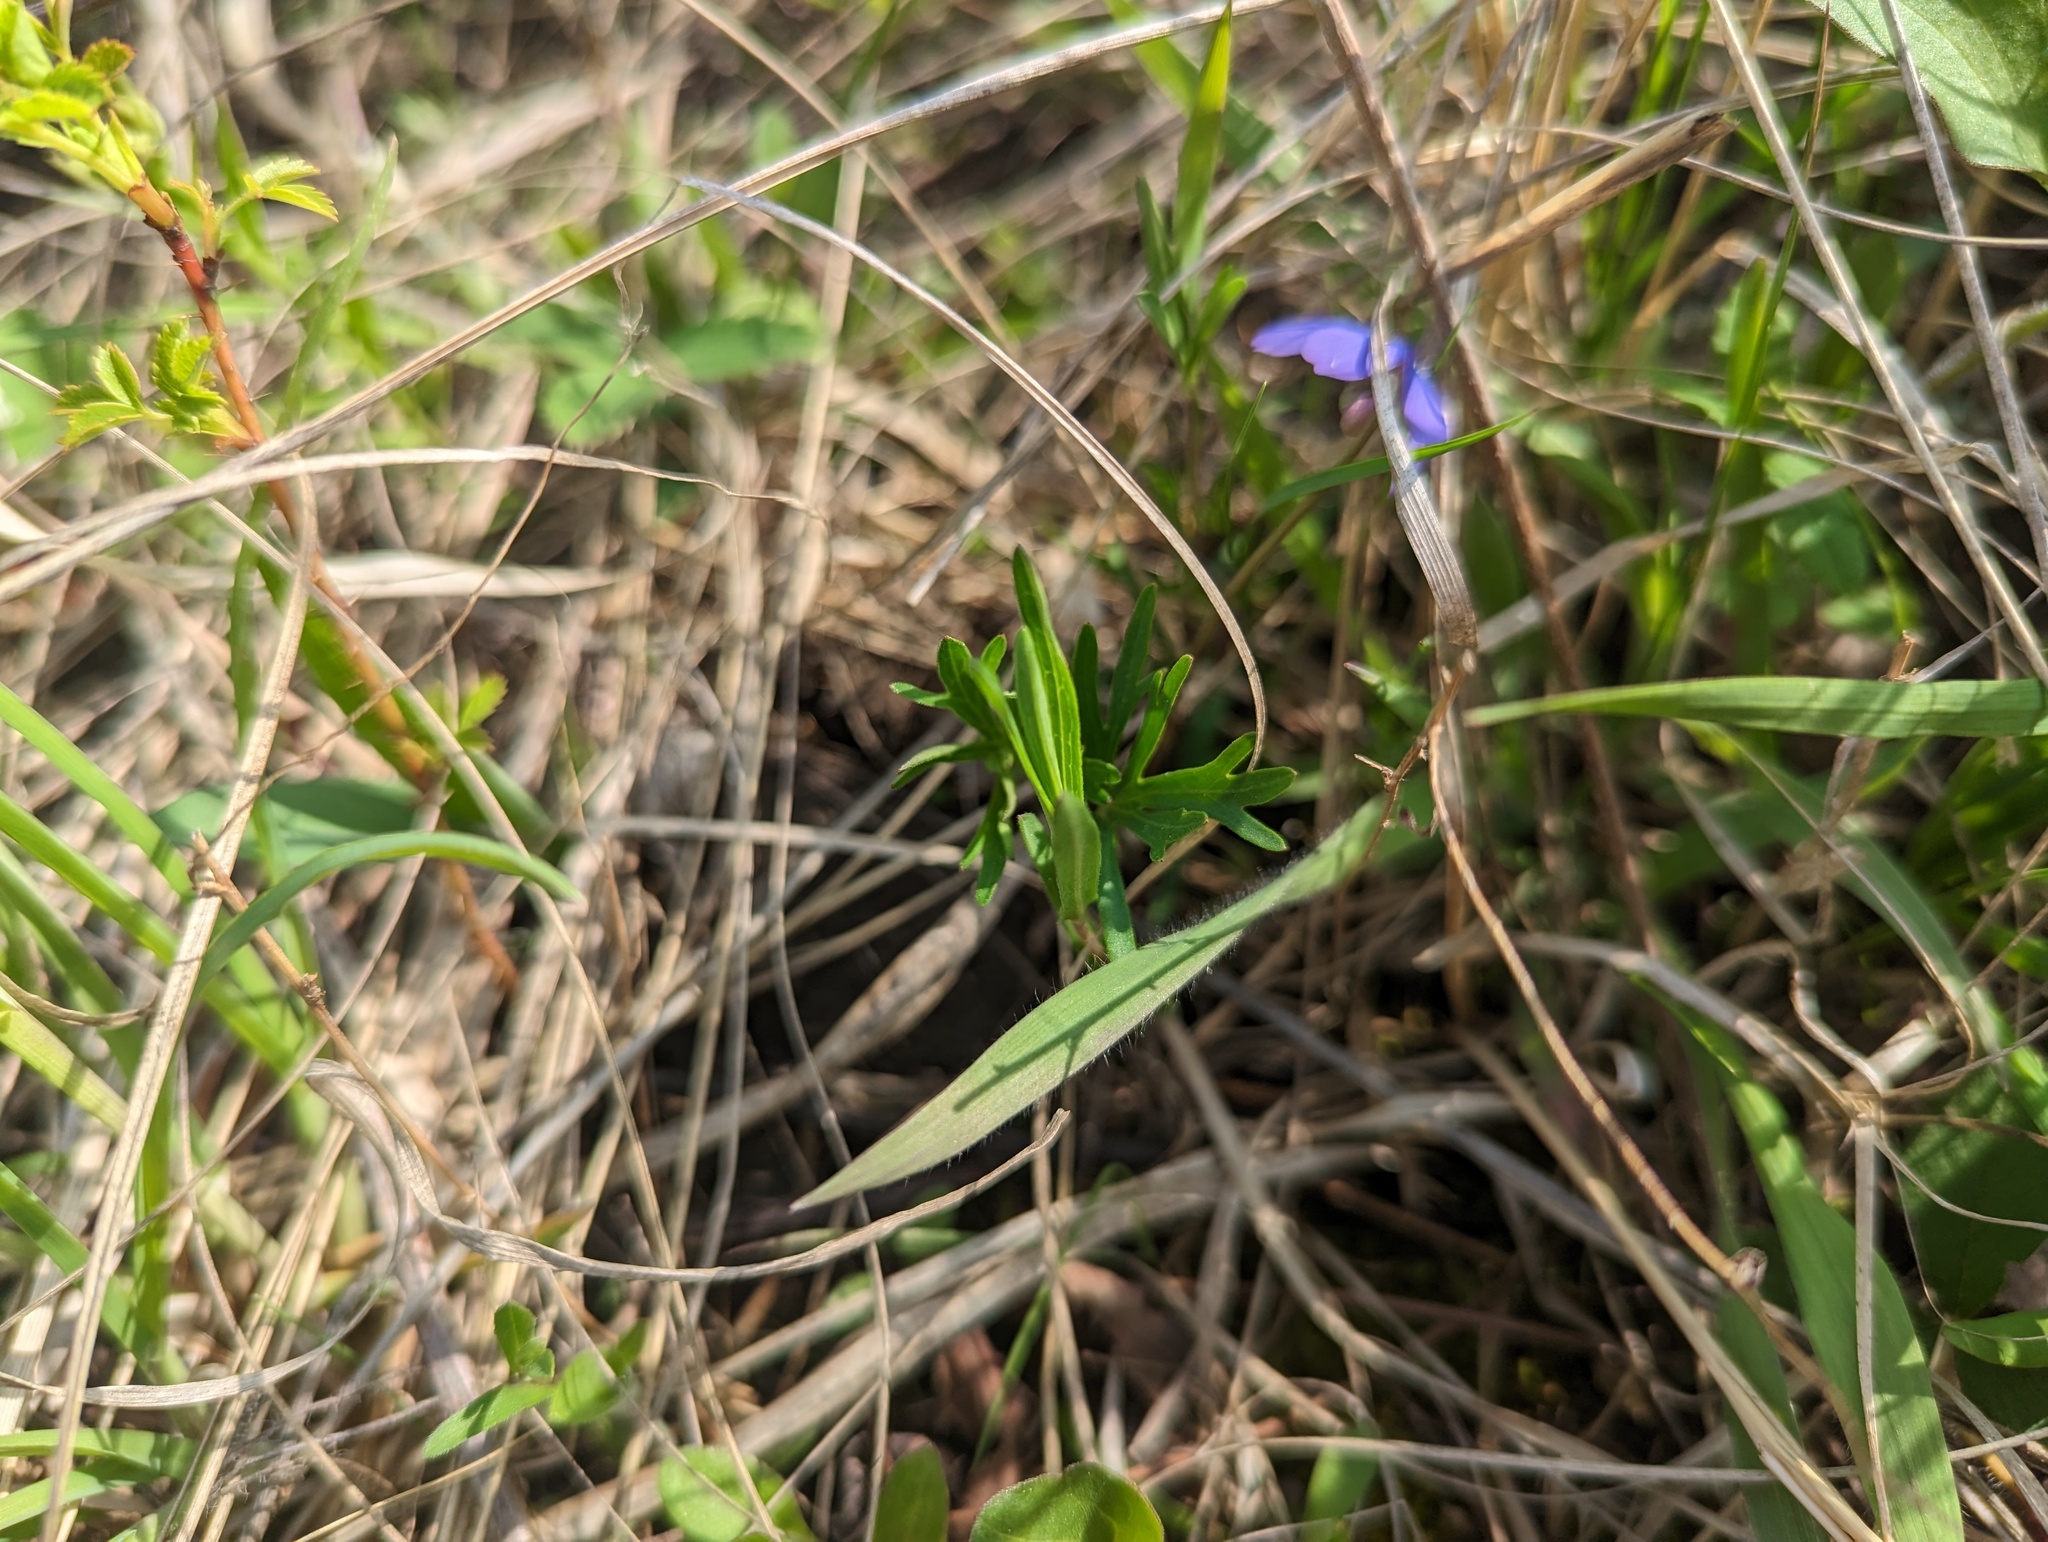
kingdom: Plantae
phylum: Tracheophyta
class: Magnoliopsida
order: Malpighiales
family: Violaceae
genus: Viola
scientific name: Viola pedatifida
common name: Prairie violet
